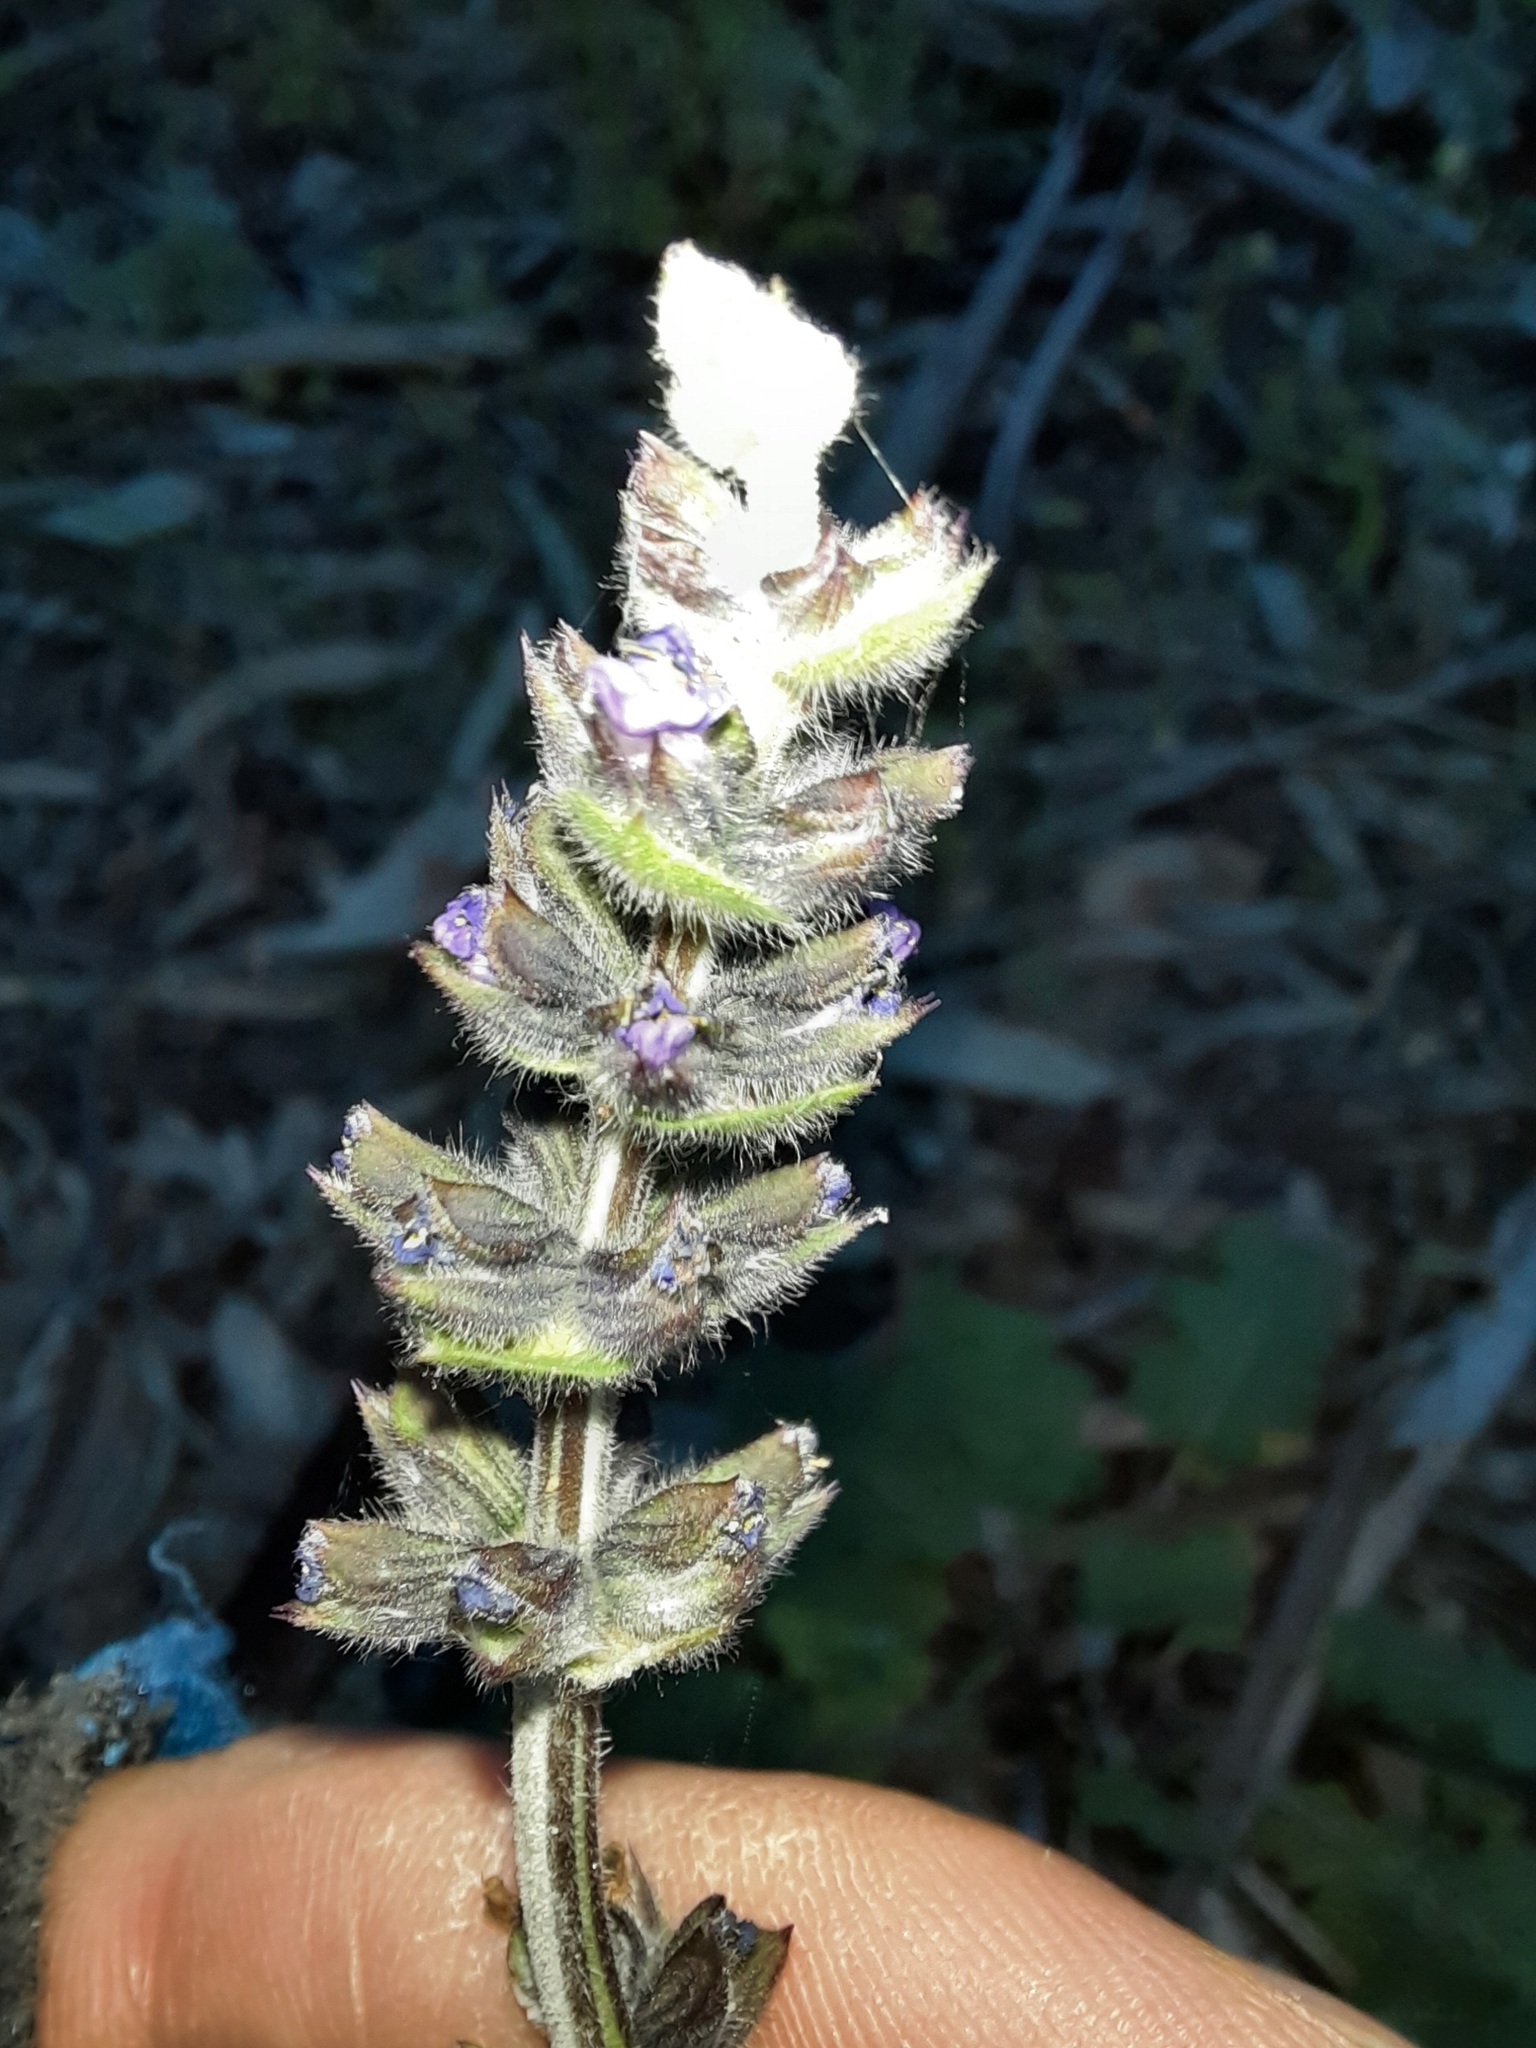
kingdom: Plantae
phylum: Tracheophyta
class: Magnoliopsida
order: Lamiales
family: Lamiaceae
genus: Salvia
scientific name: Salvia verbenaca
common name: Wild clary
